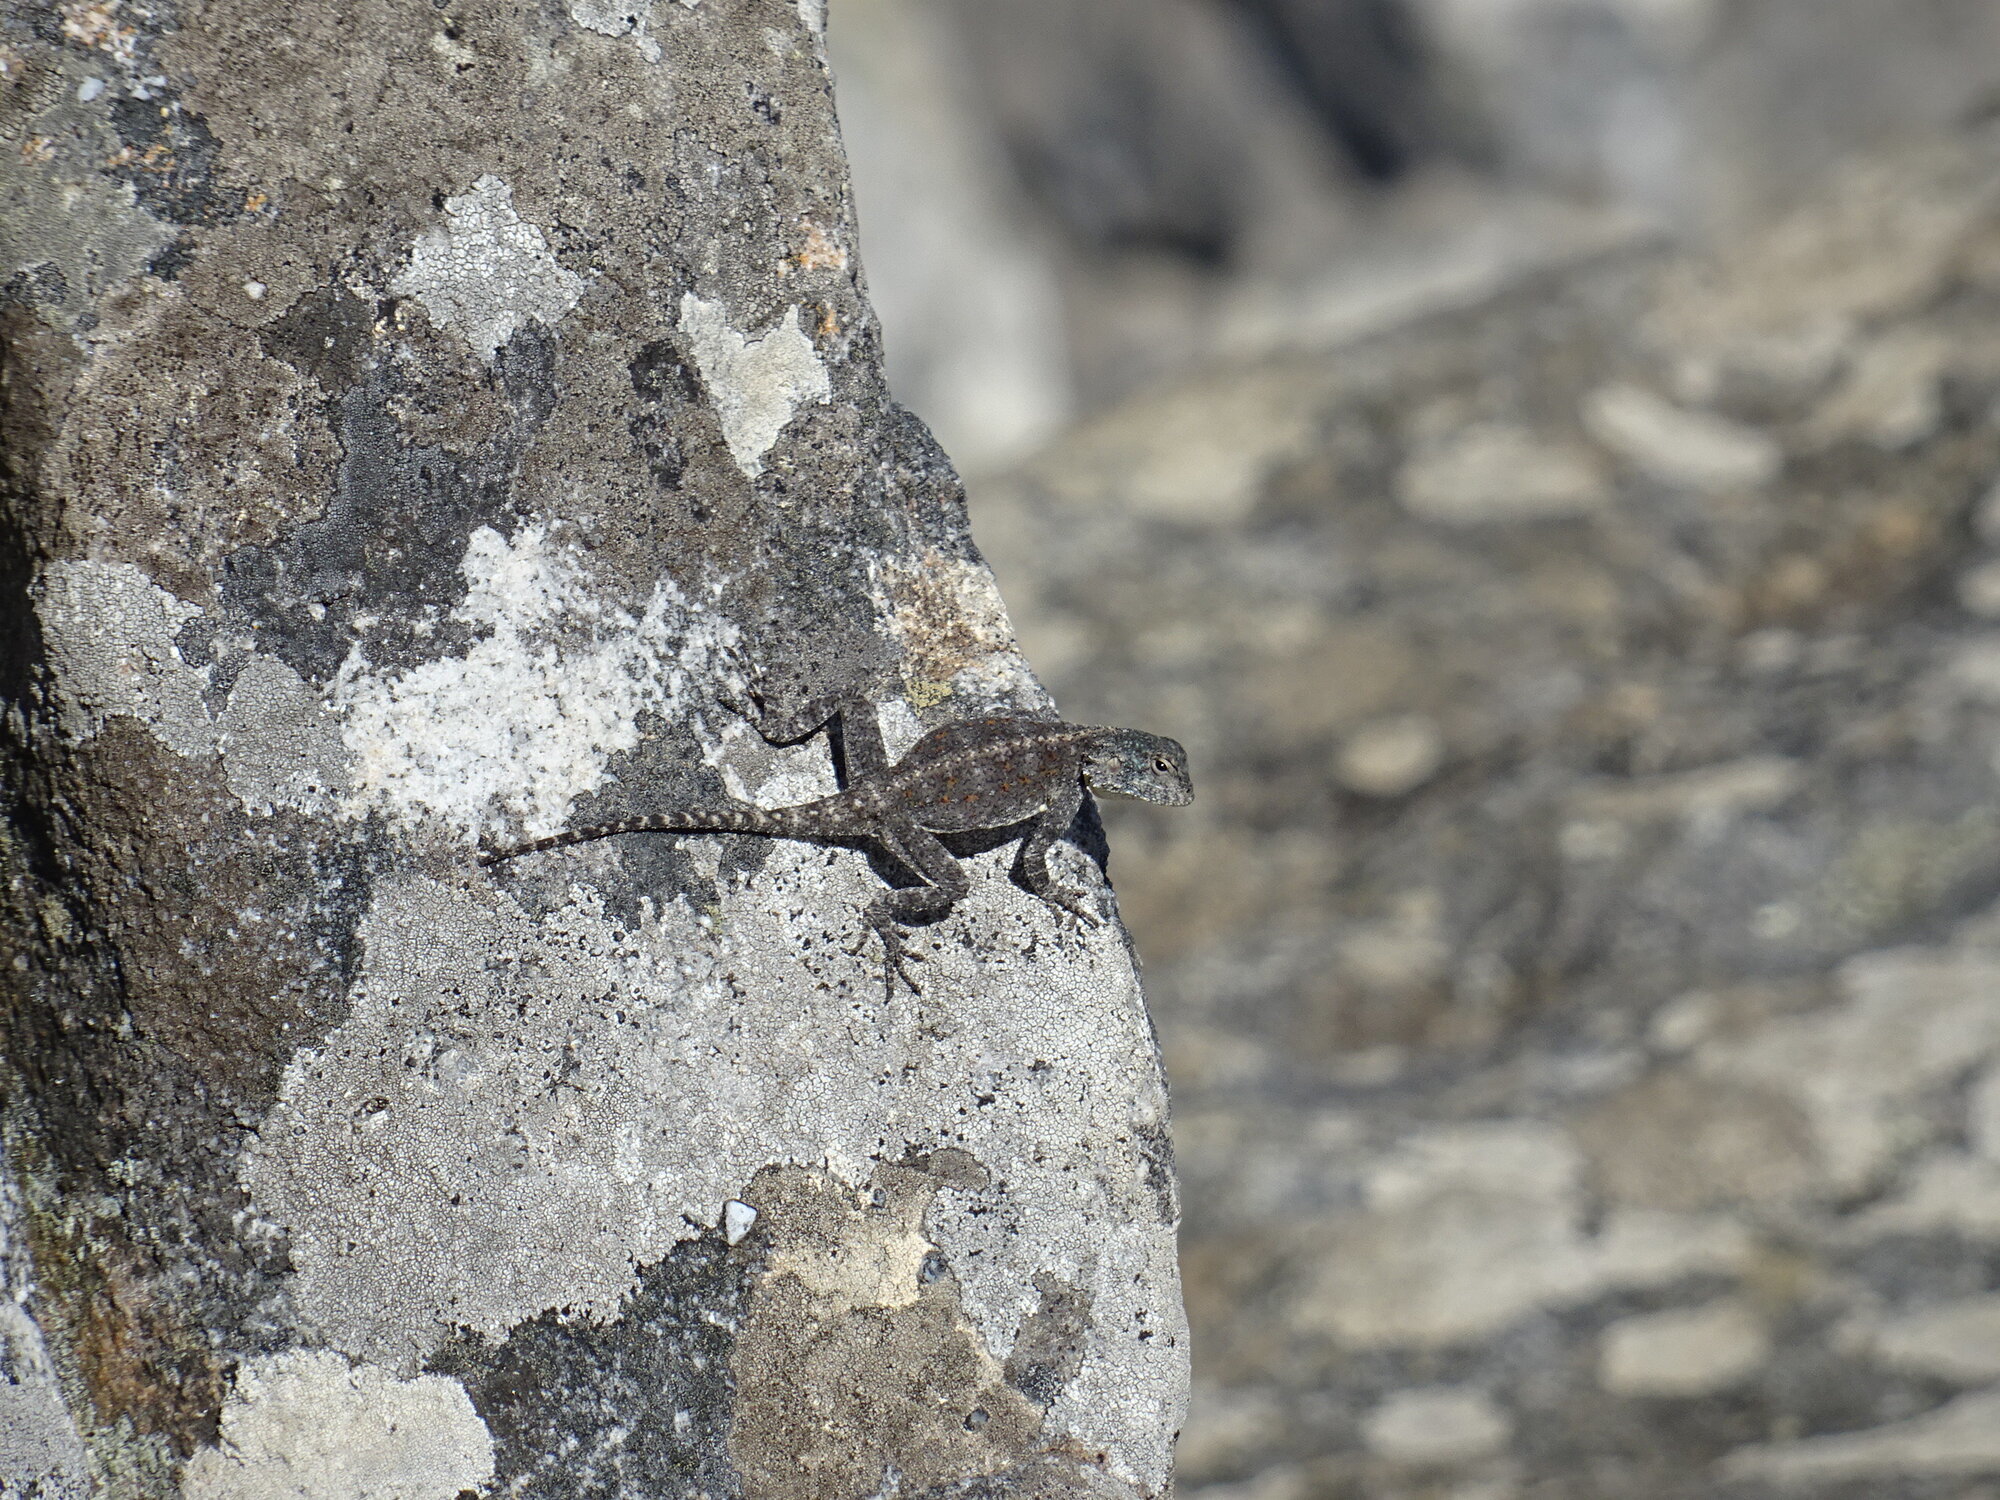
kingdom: Animalia
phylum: Chordata
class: Squamata
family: Agamidae
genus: Agama
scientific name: Agama atra
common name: Southern african rock agama
